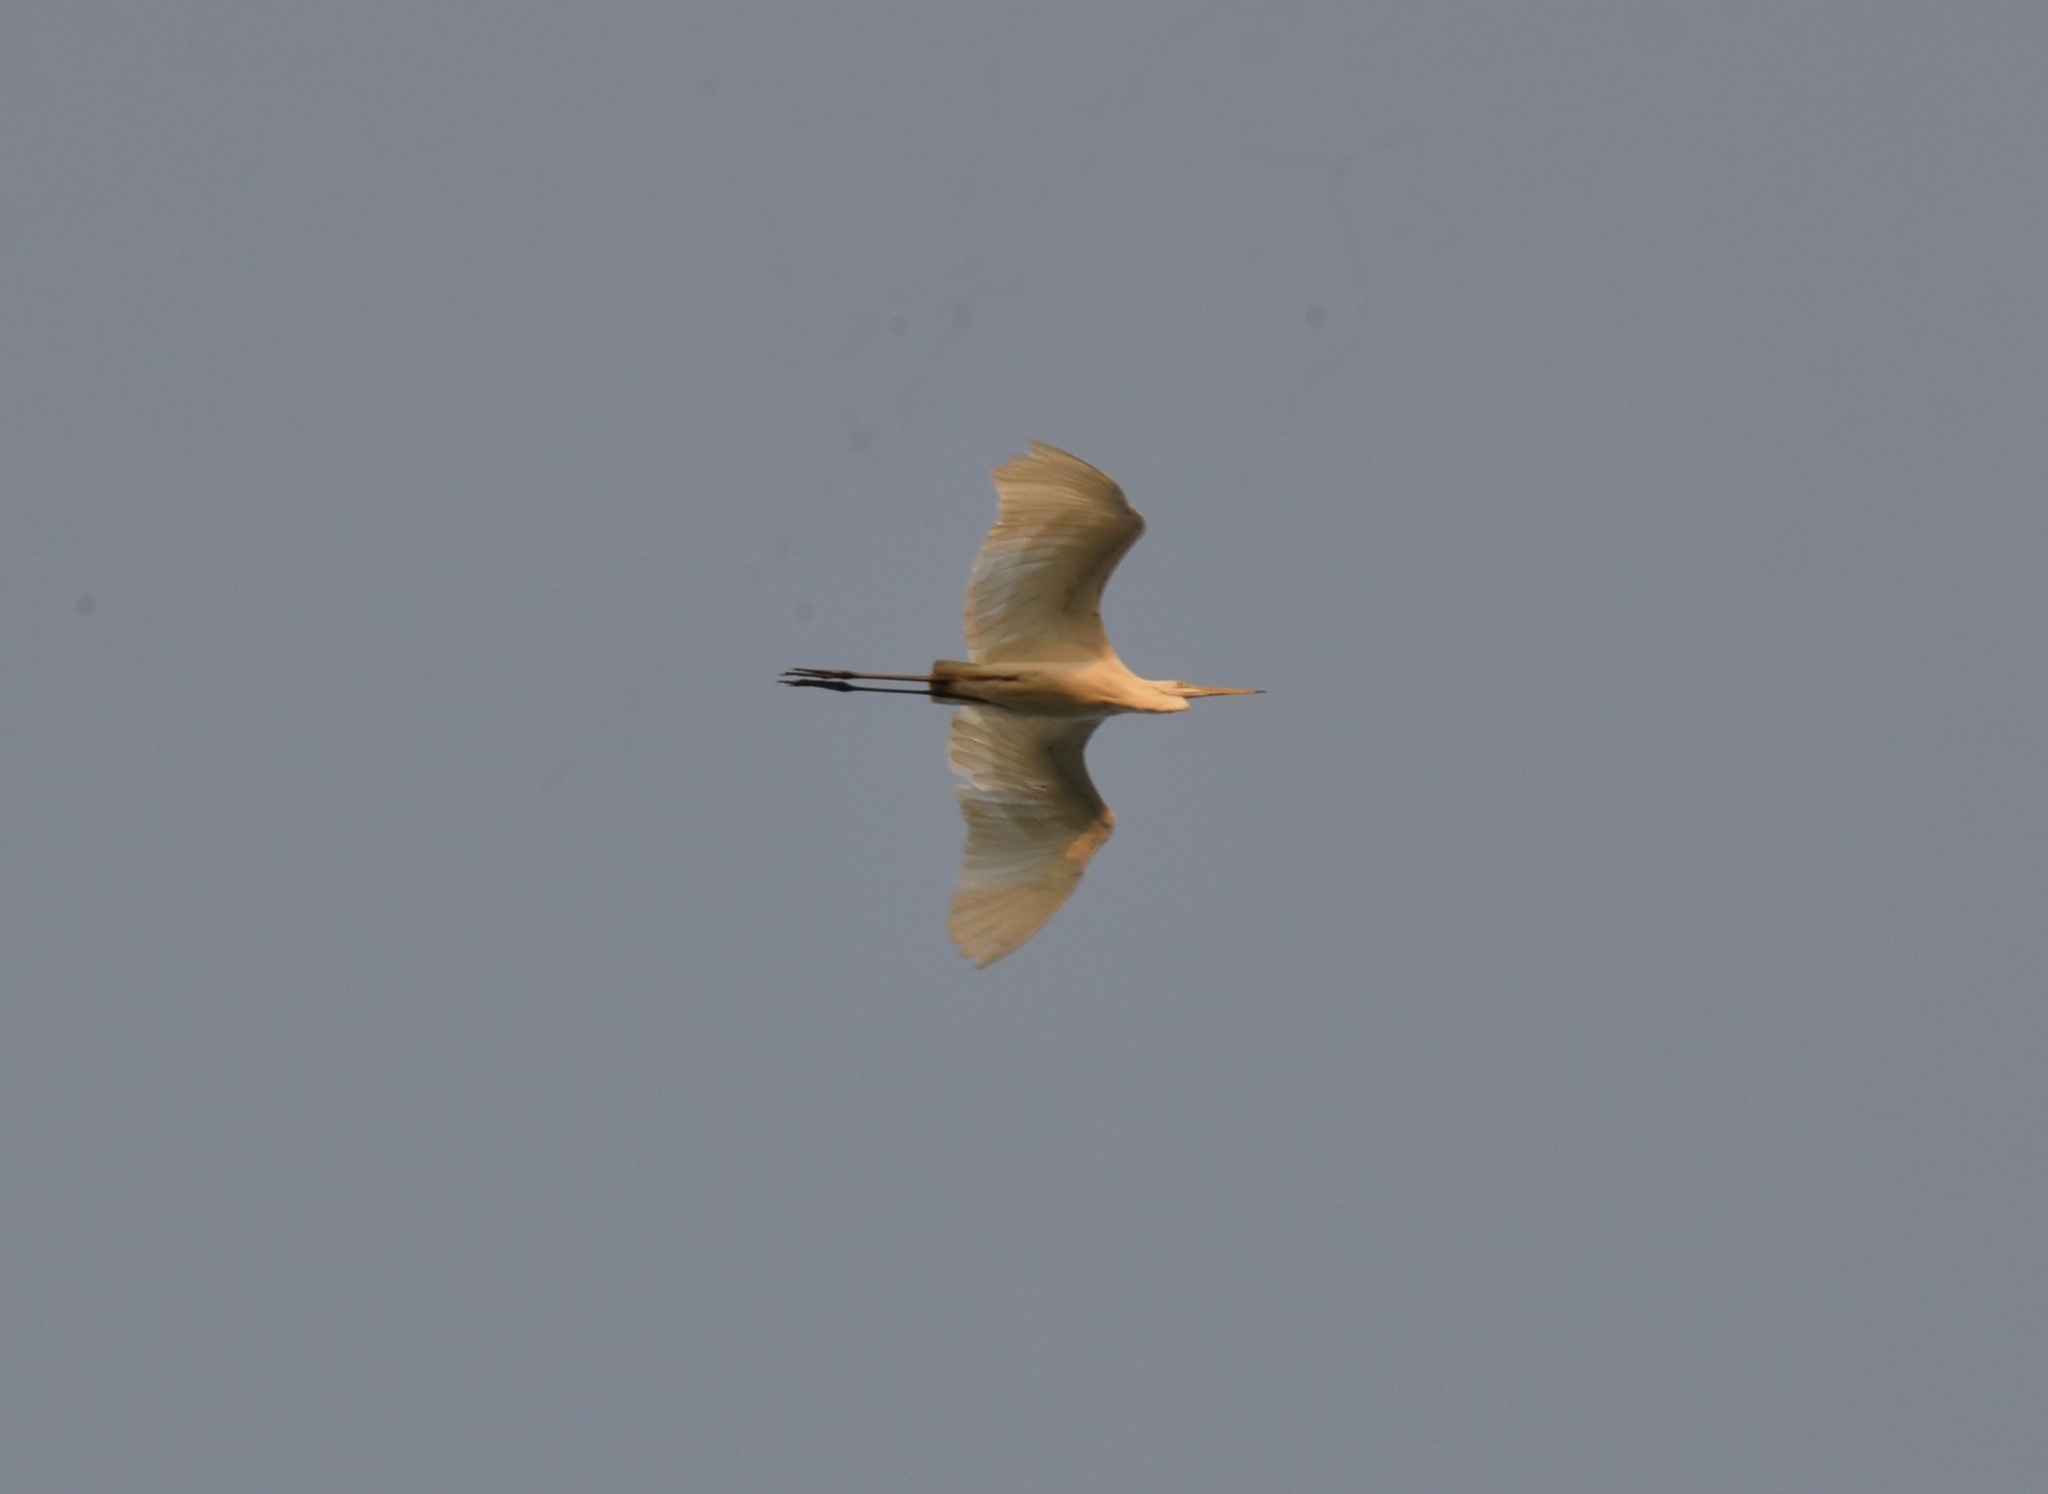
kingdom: Animalia
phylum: Chordata
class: Aves
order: Pelecaniformes
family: Ardeidae
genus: Ardea
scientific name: Ardea alba
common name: Great egret
